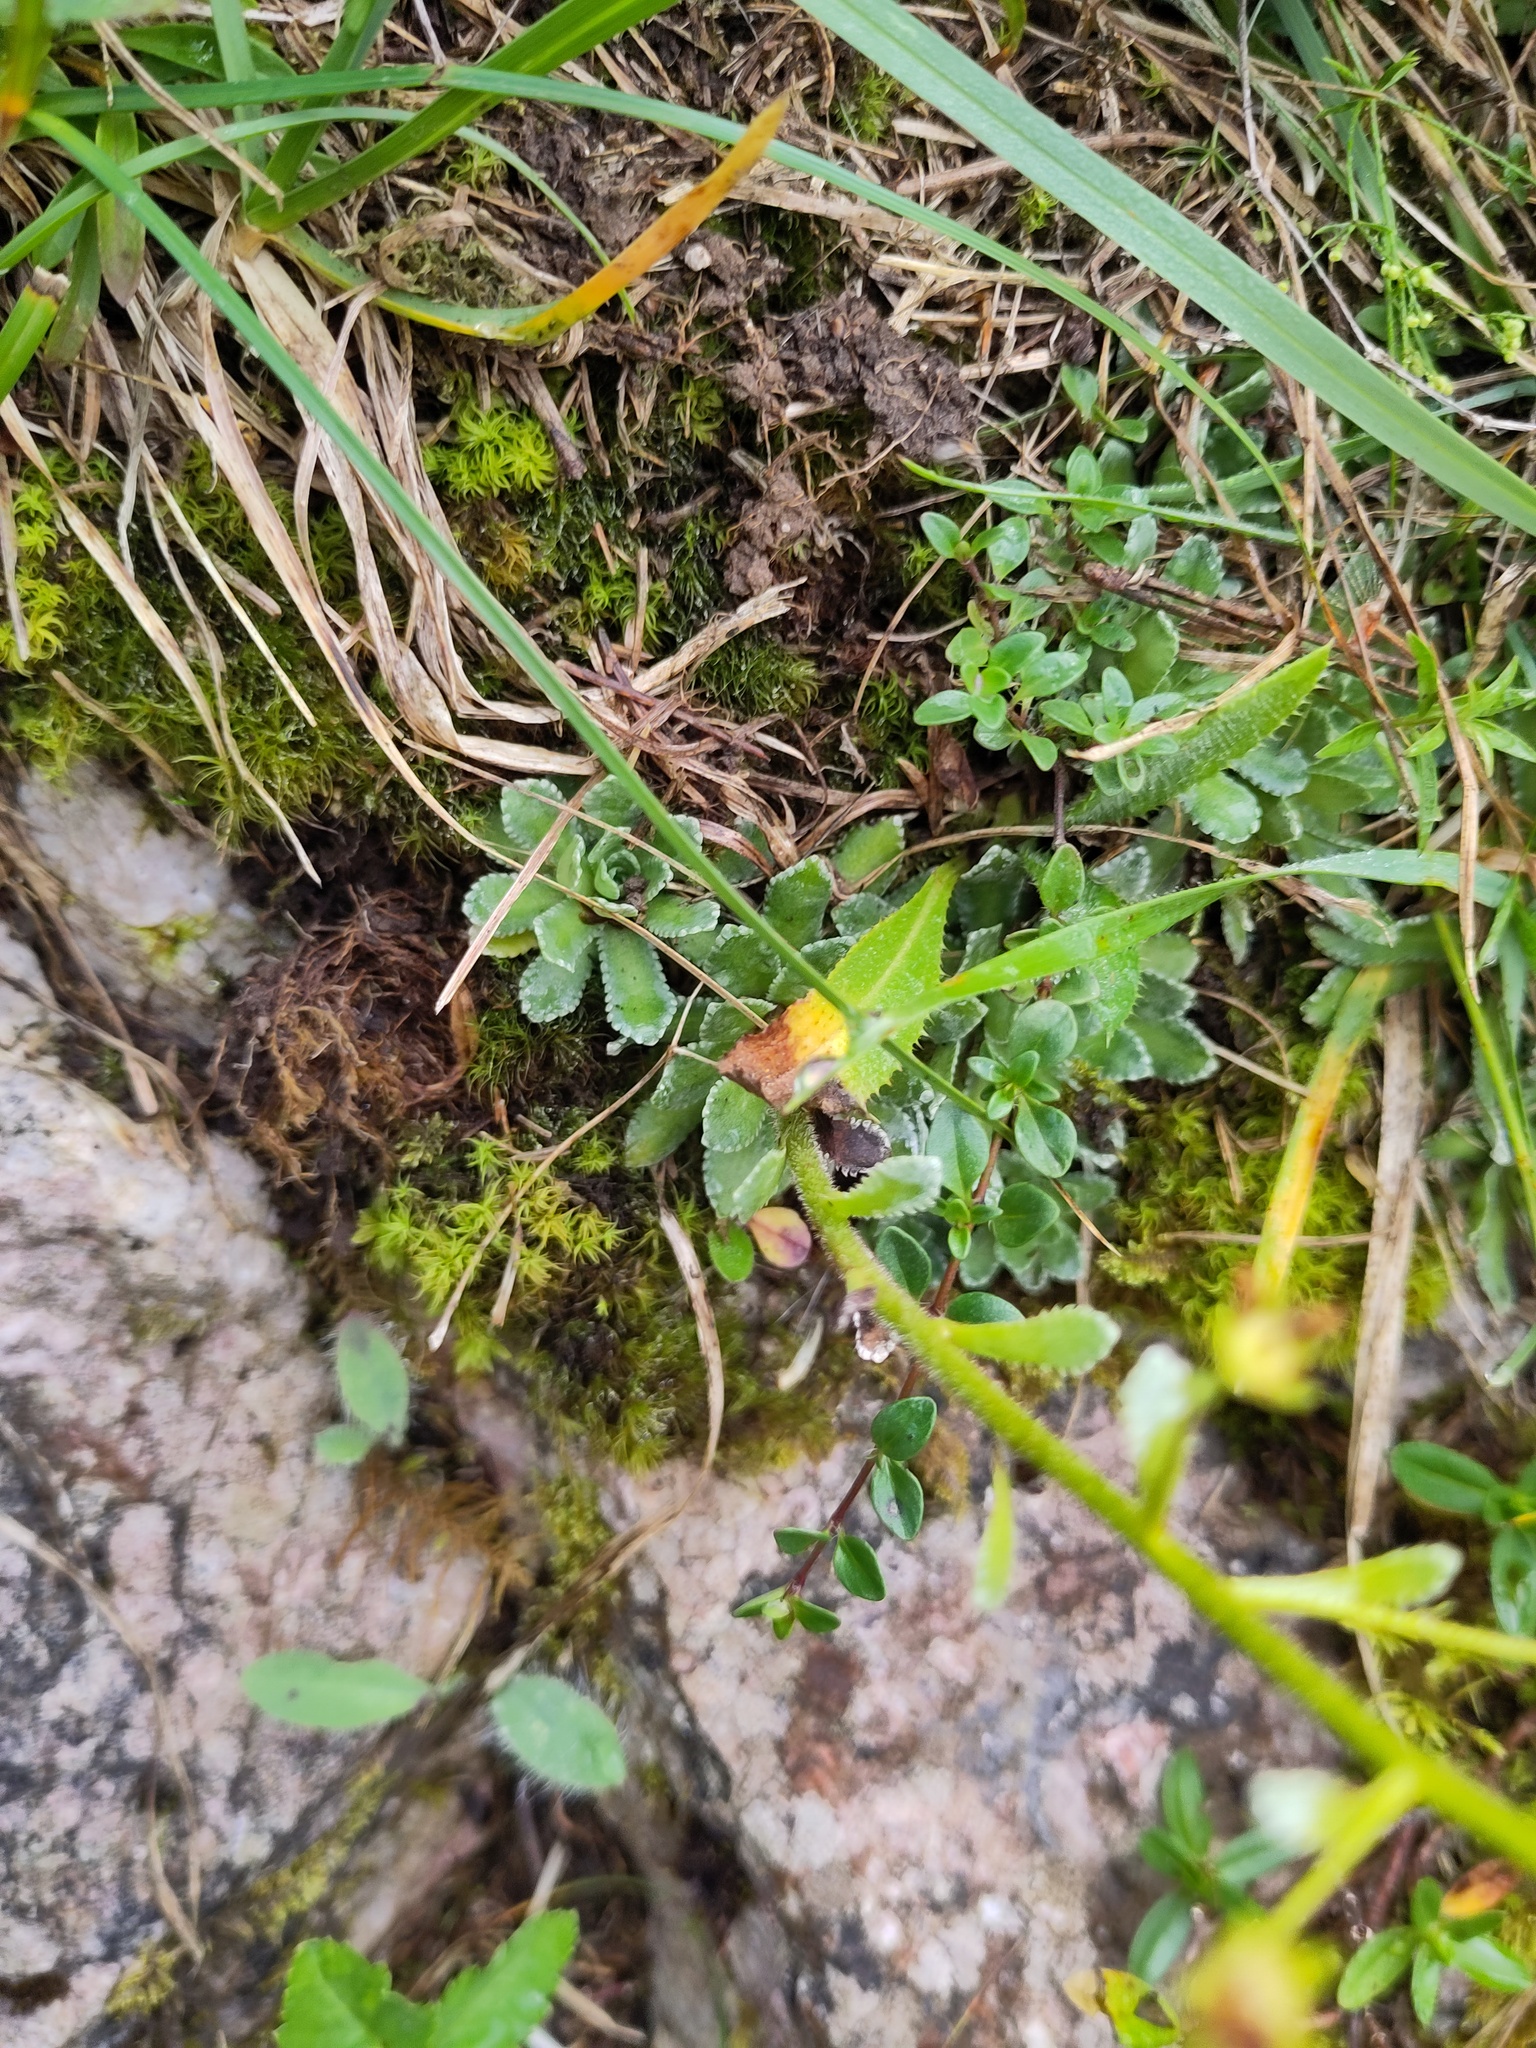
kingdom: Plantae
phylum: Tracheophyta
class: Magnoliopsida
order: Saxifragales
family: Saxifragaceae
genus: Saxifraga
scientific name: Saxifraga paniculata
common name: Livelong saxifrage
